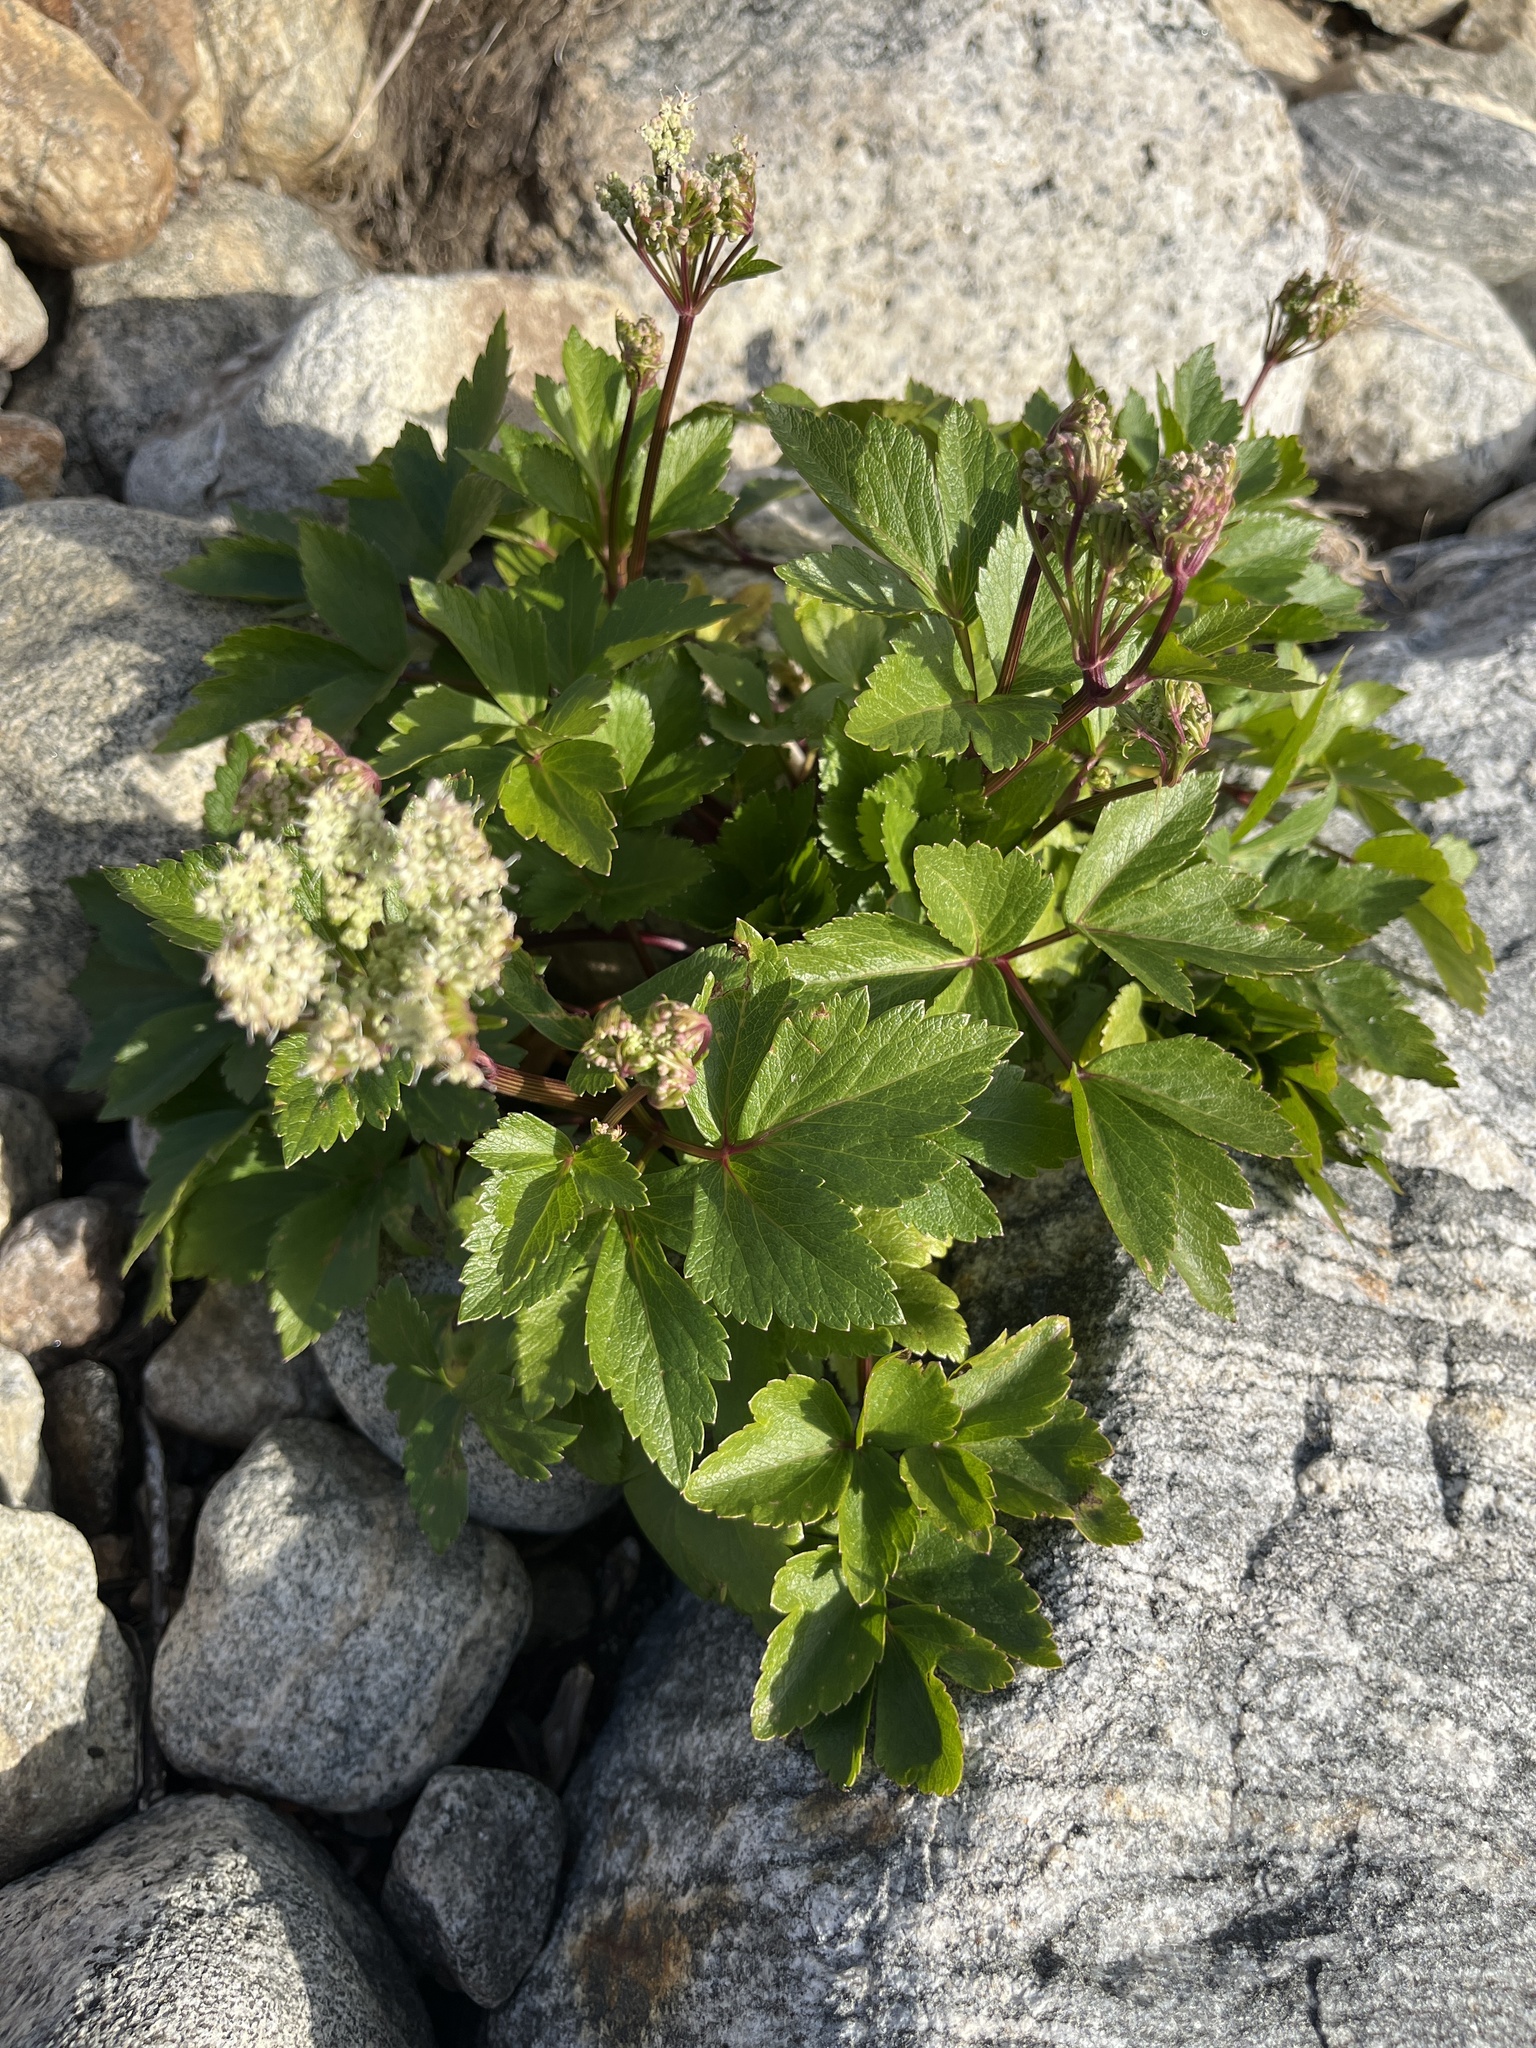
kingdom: Plantae
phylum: Tracheophyta
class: Magnoliopsida
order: Apiales
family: Apiaceae
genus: Ligusticum
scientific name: Ligusticum scothicum
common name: Beach lovage
